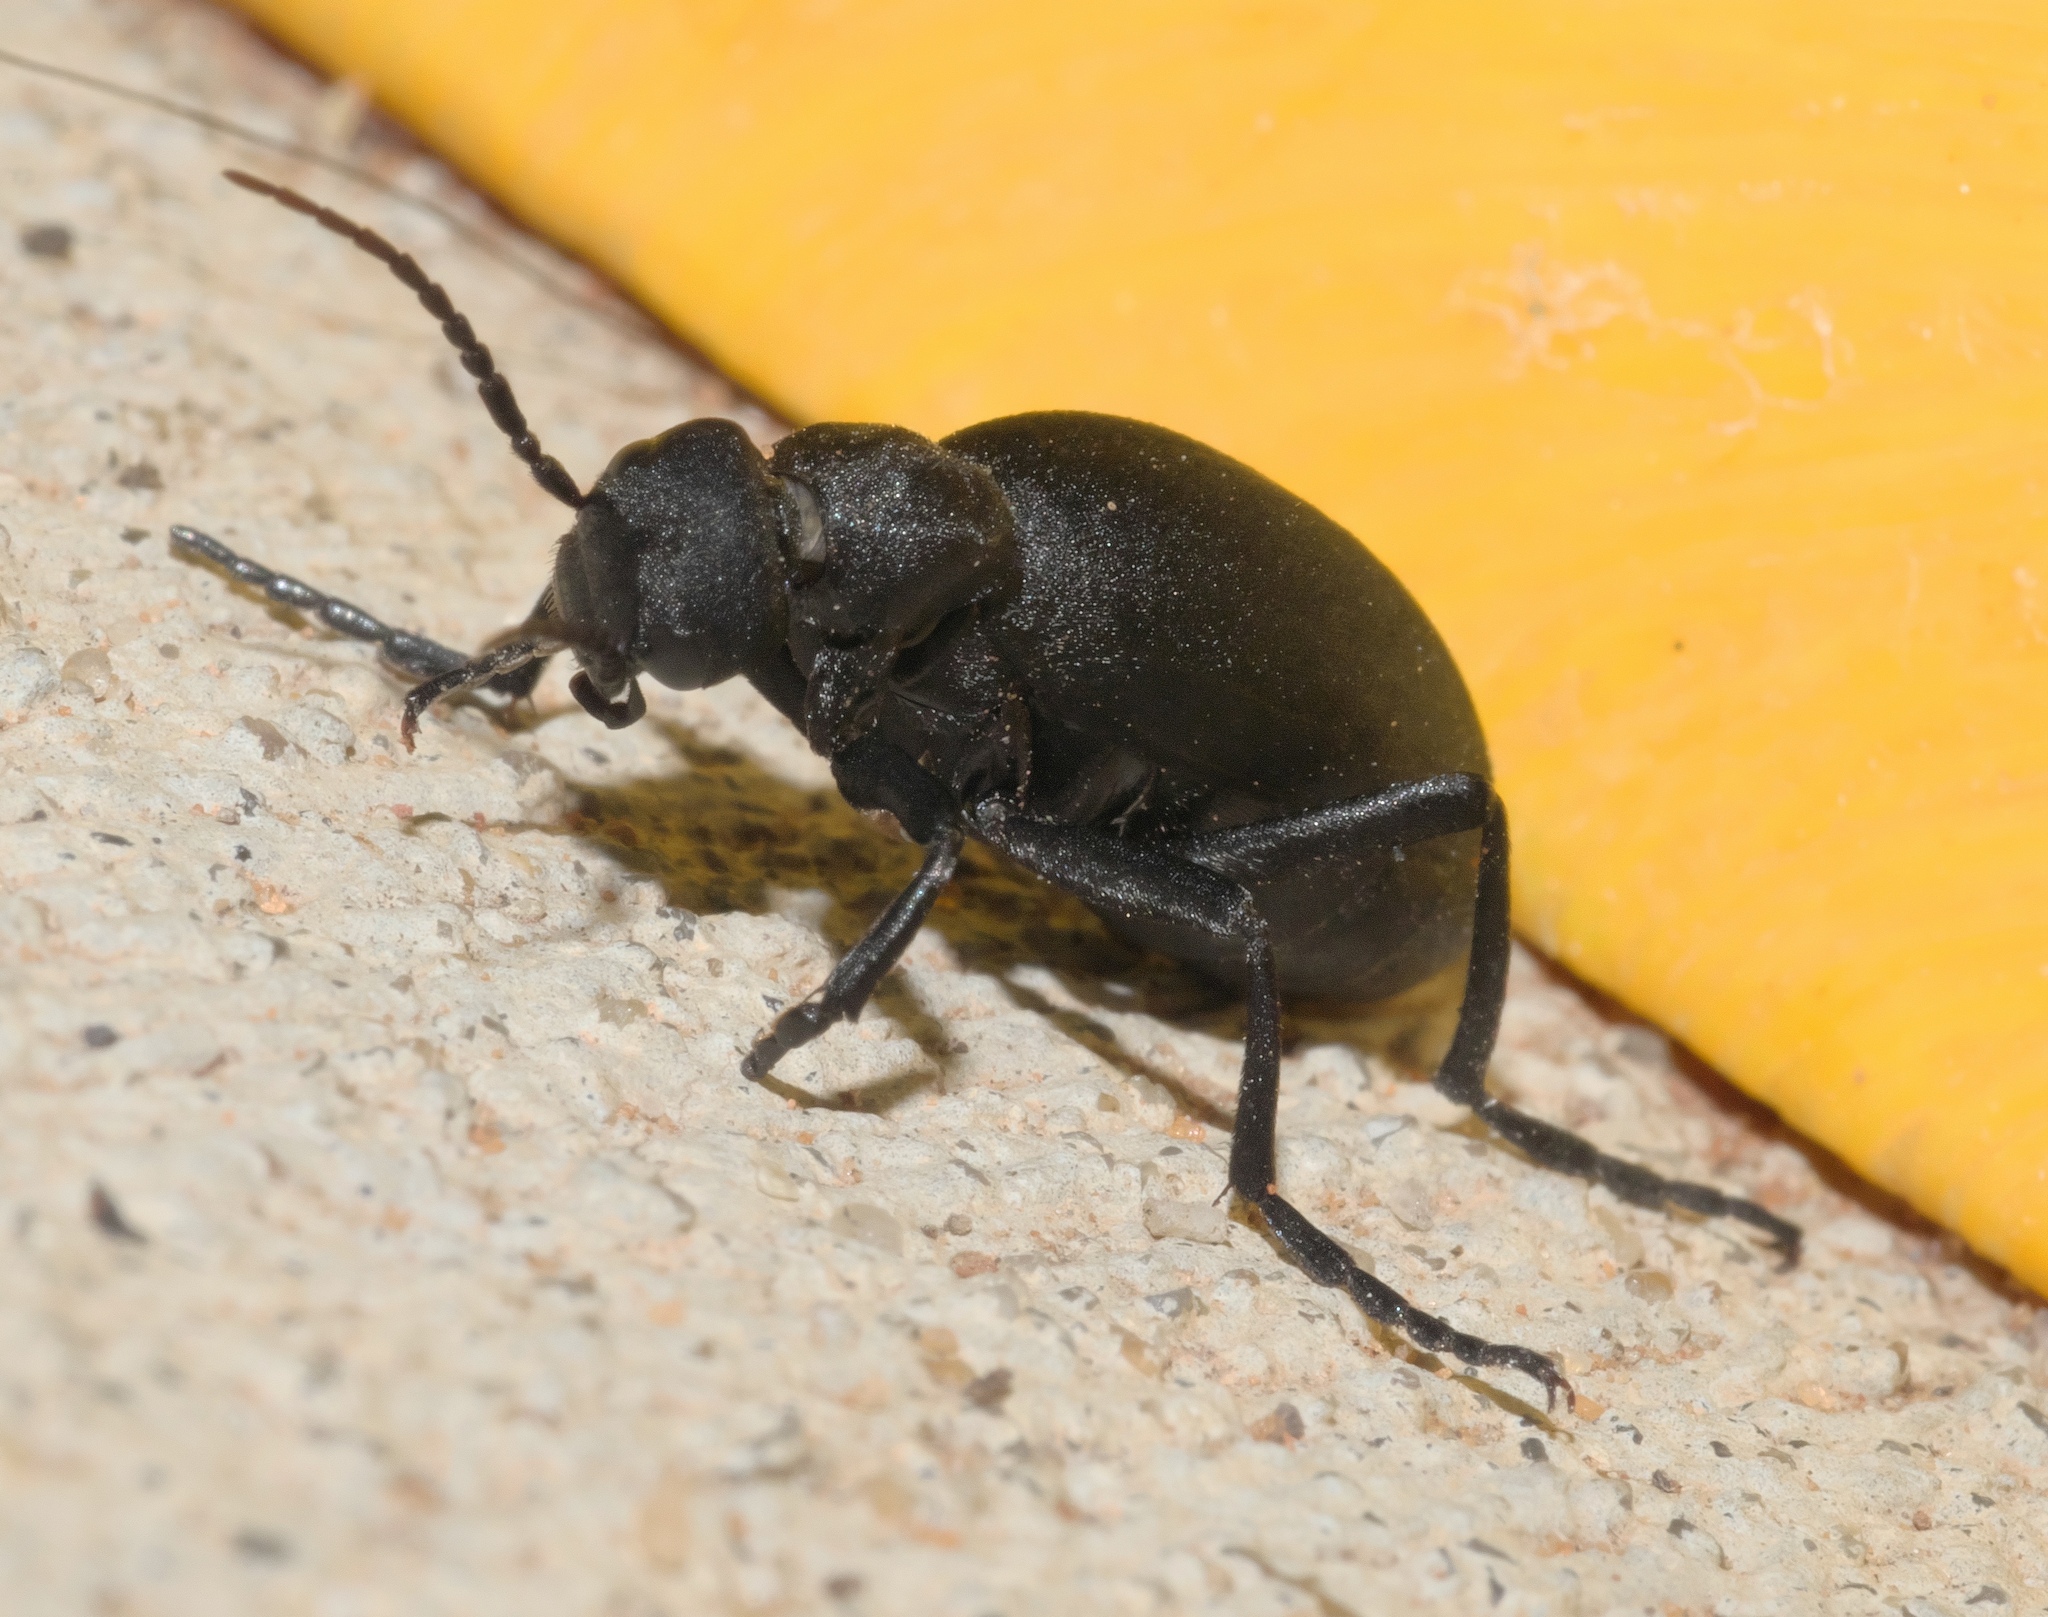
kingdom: Animalia
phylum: Arthropoda
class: Insecta
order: Coleoptera
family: Meloidae
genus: Epicauta
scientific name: Epicauta conferta
